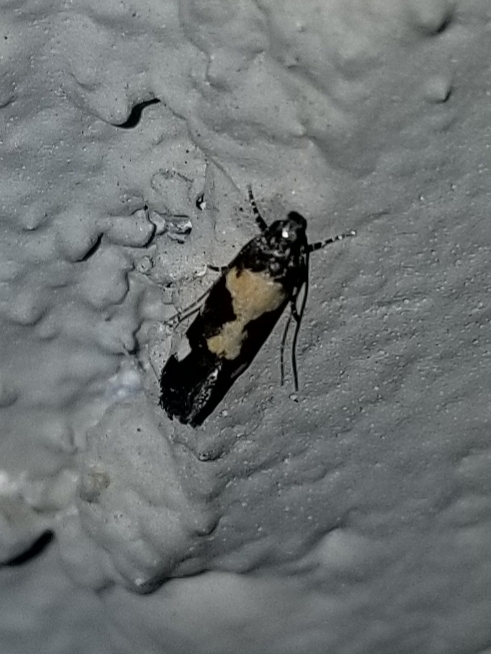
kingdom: Animalia
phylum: Arthropoda
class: Insecta
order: Lepidoptera
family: Gelechiidae
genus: Stegasta
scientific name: Stegasta bosqueella
